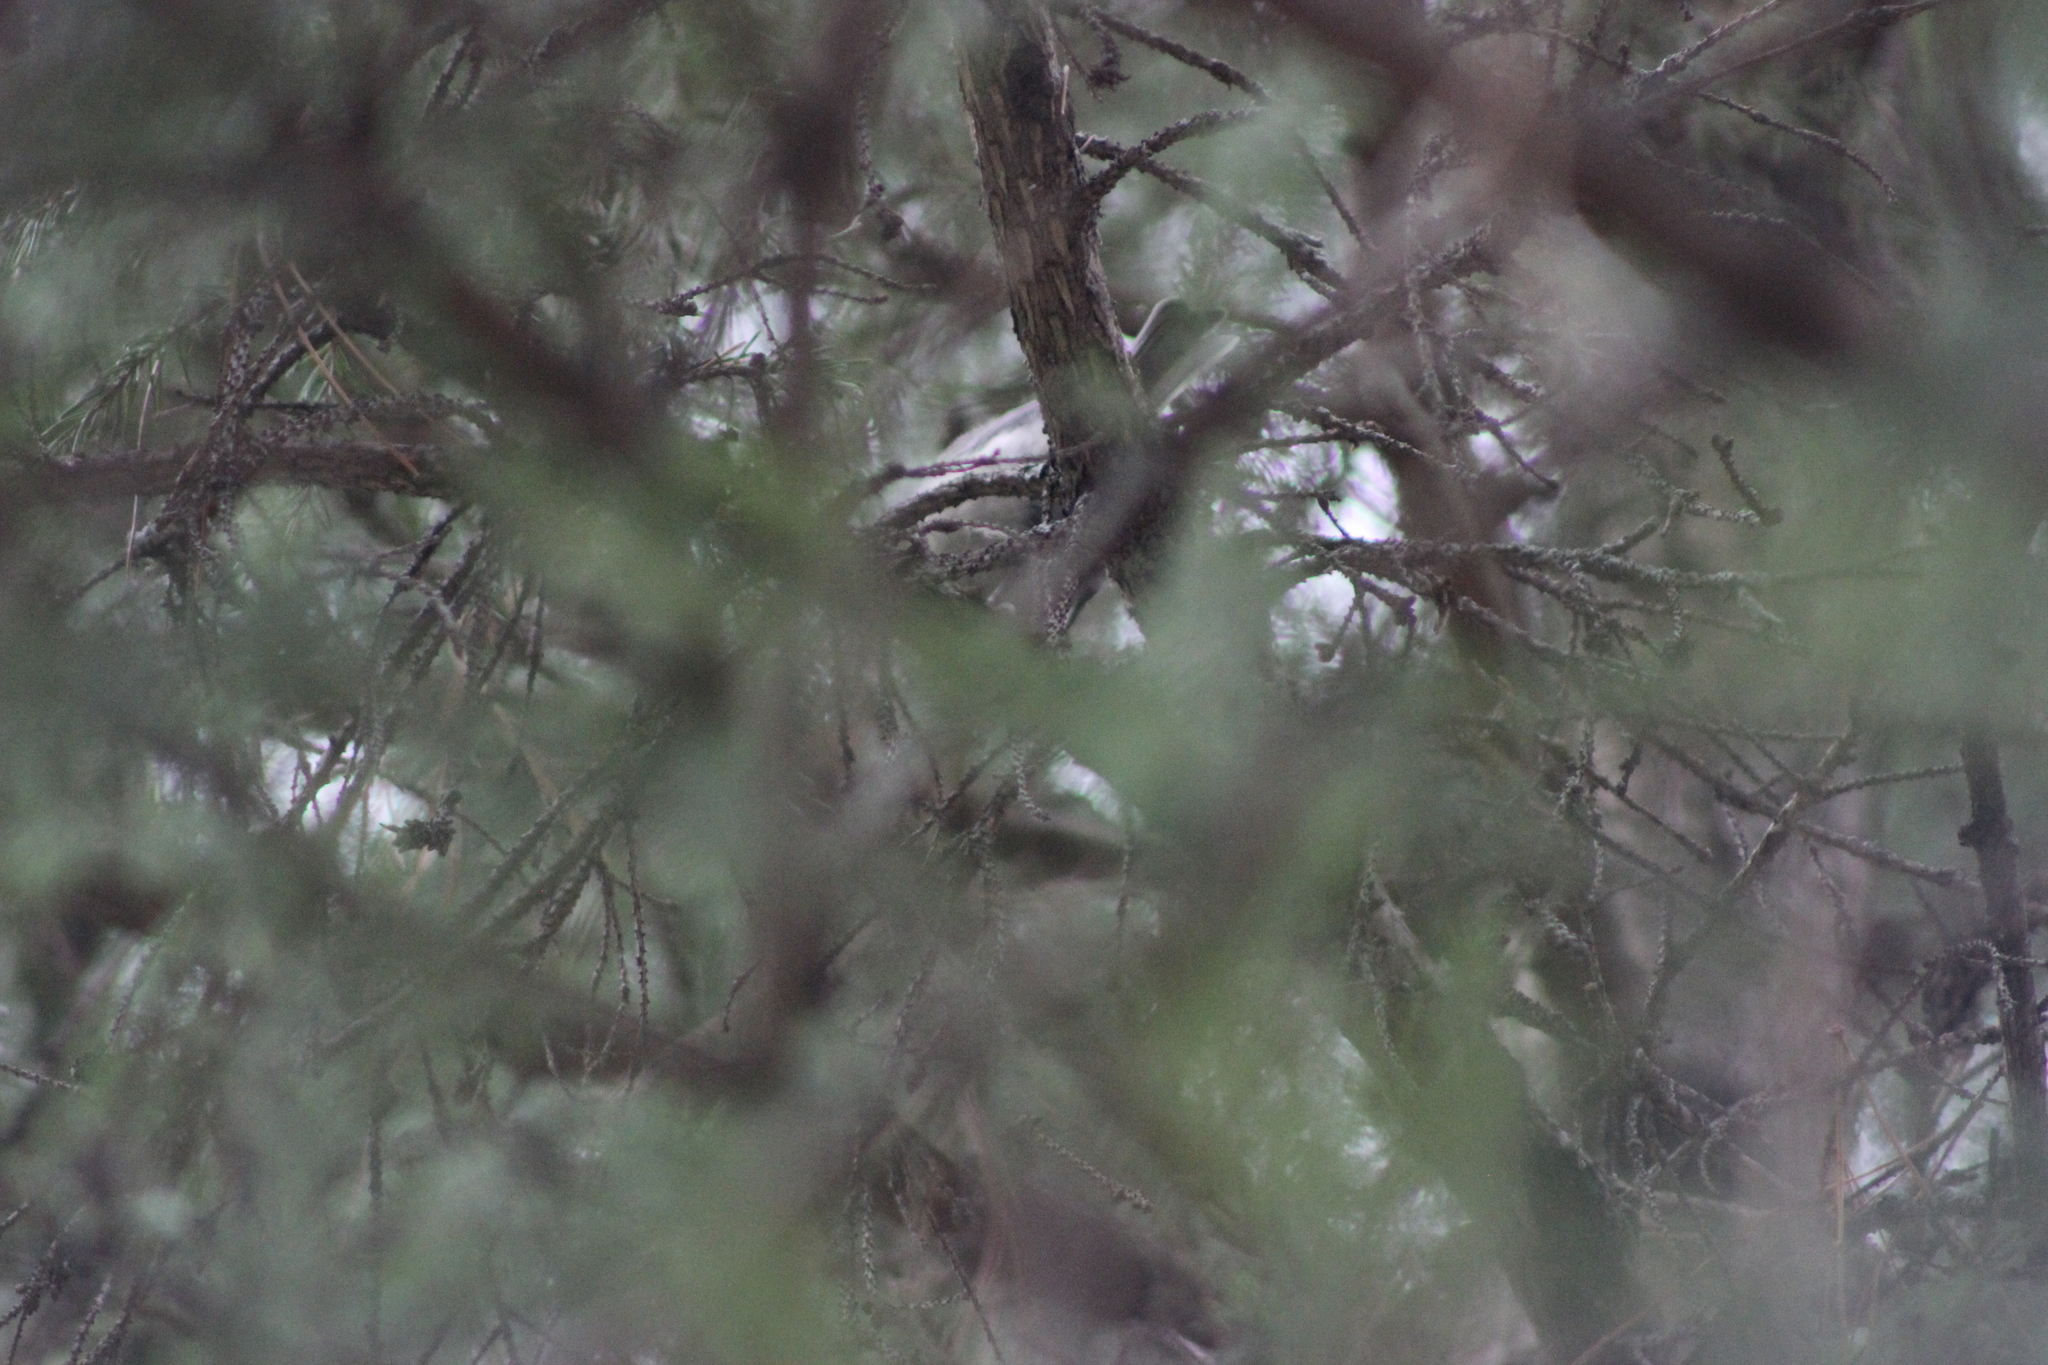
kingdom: Animalia
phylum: Chordata
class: Aves
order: Passeriformes
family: Paridae
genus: Poecile
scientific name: Poecile montanus
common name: Willow tit
